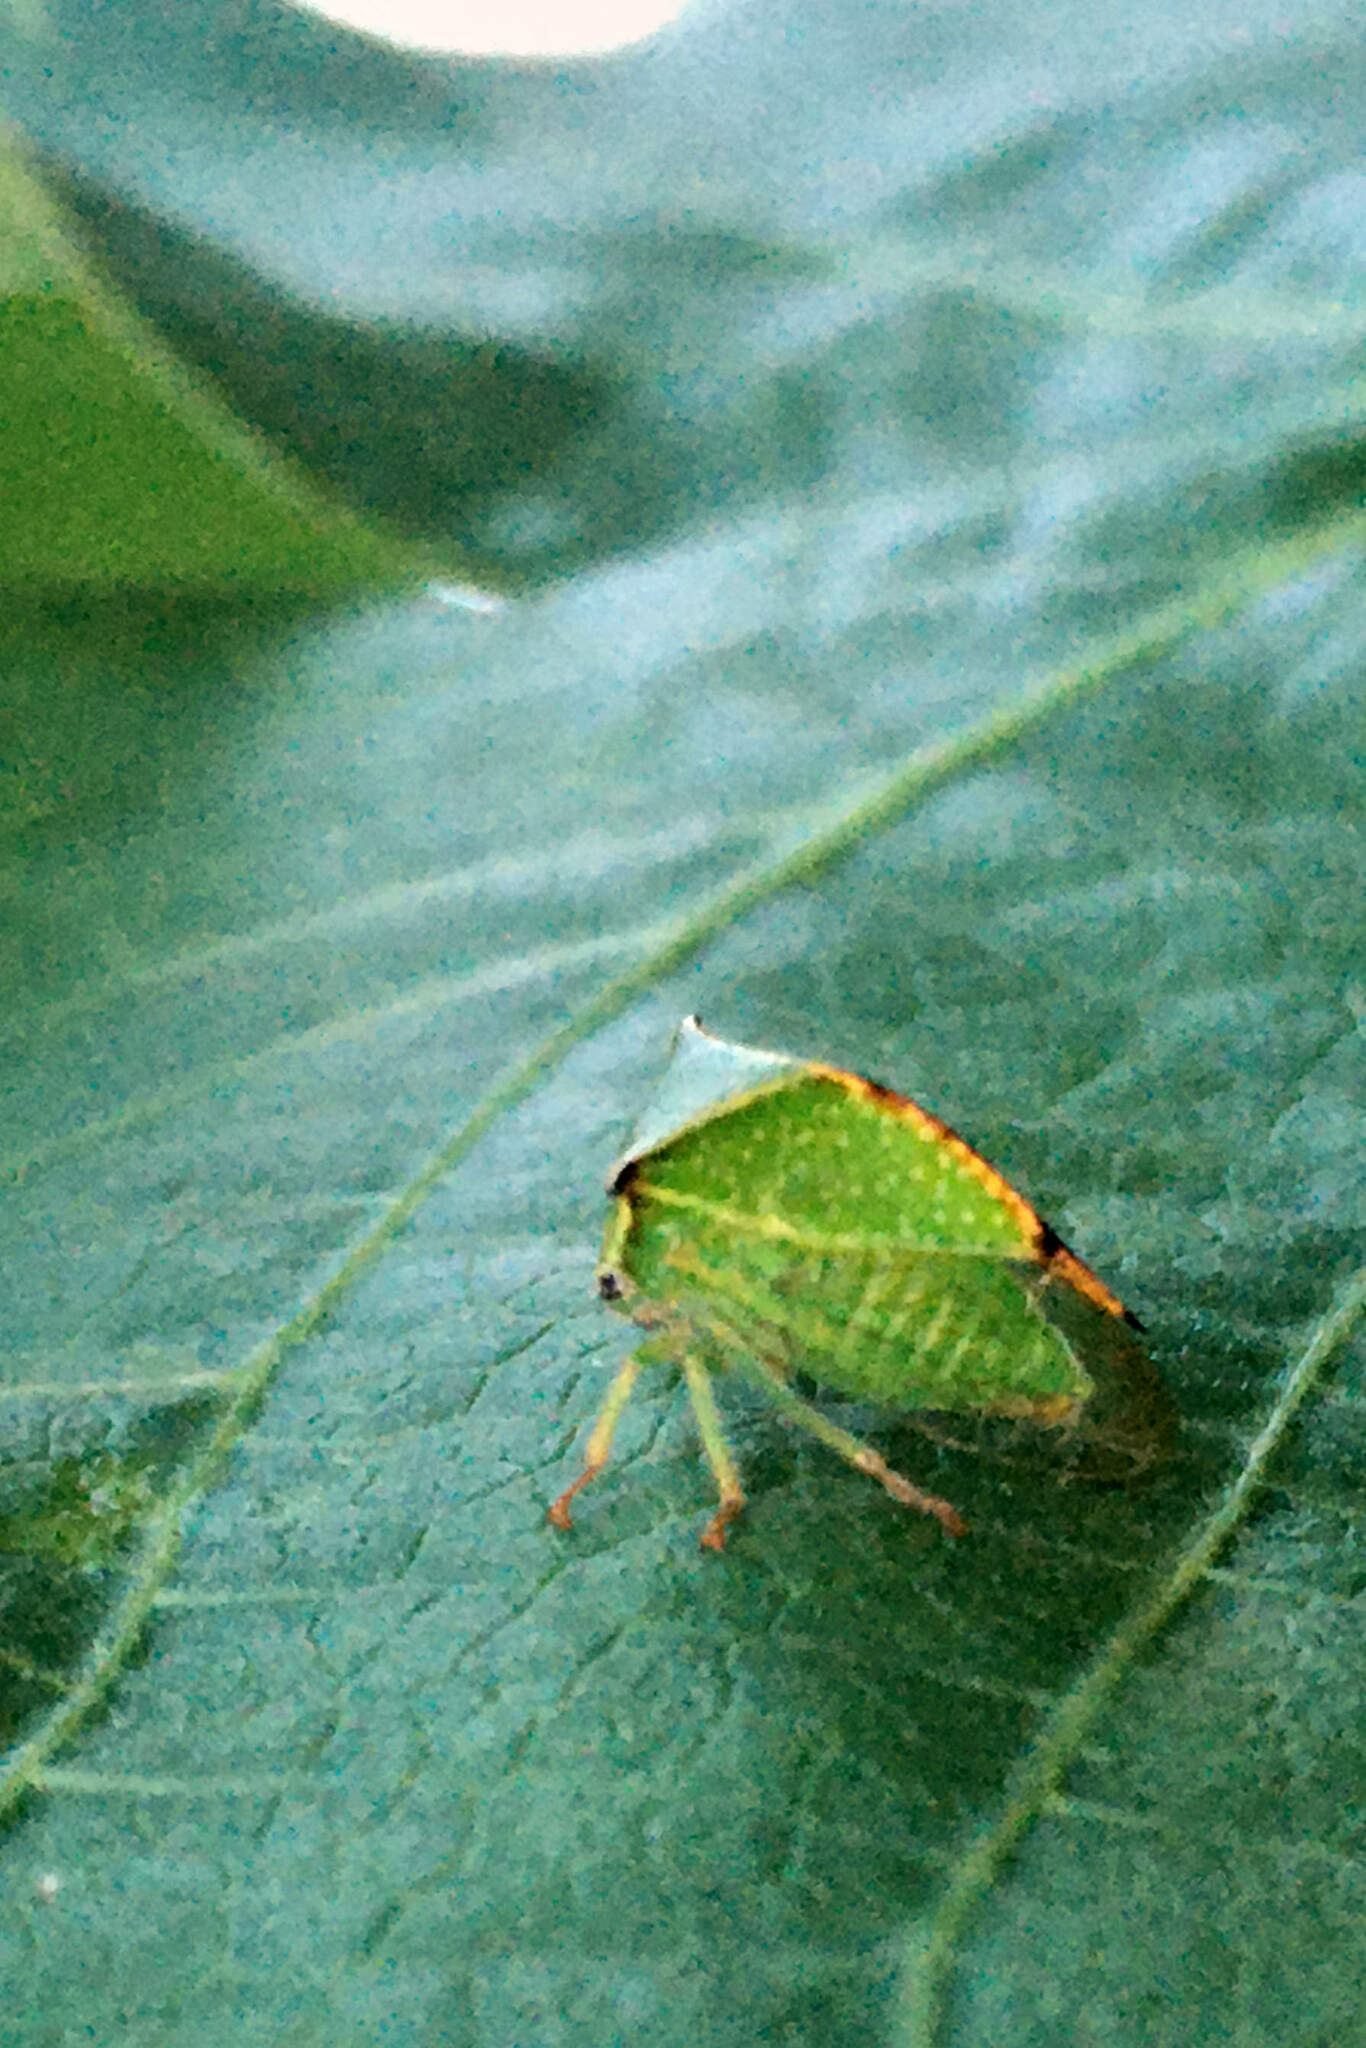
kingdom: Animalia
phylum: Arthropoda
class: Insecta
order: Hemiptera
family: Membracidae
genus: Stictocephala
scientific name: Stictocephala bisonia
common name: American buffalo treehopper
